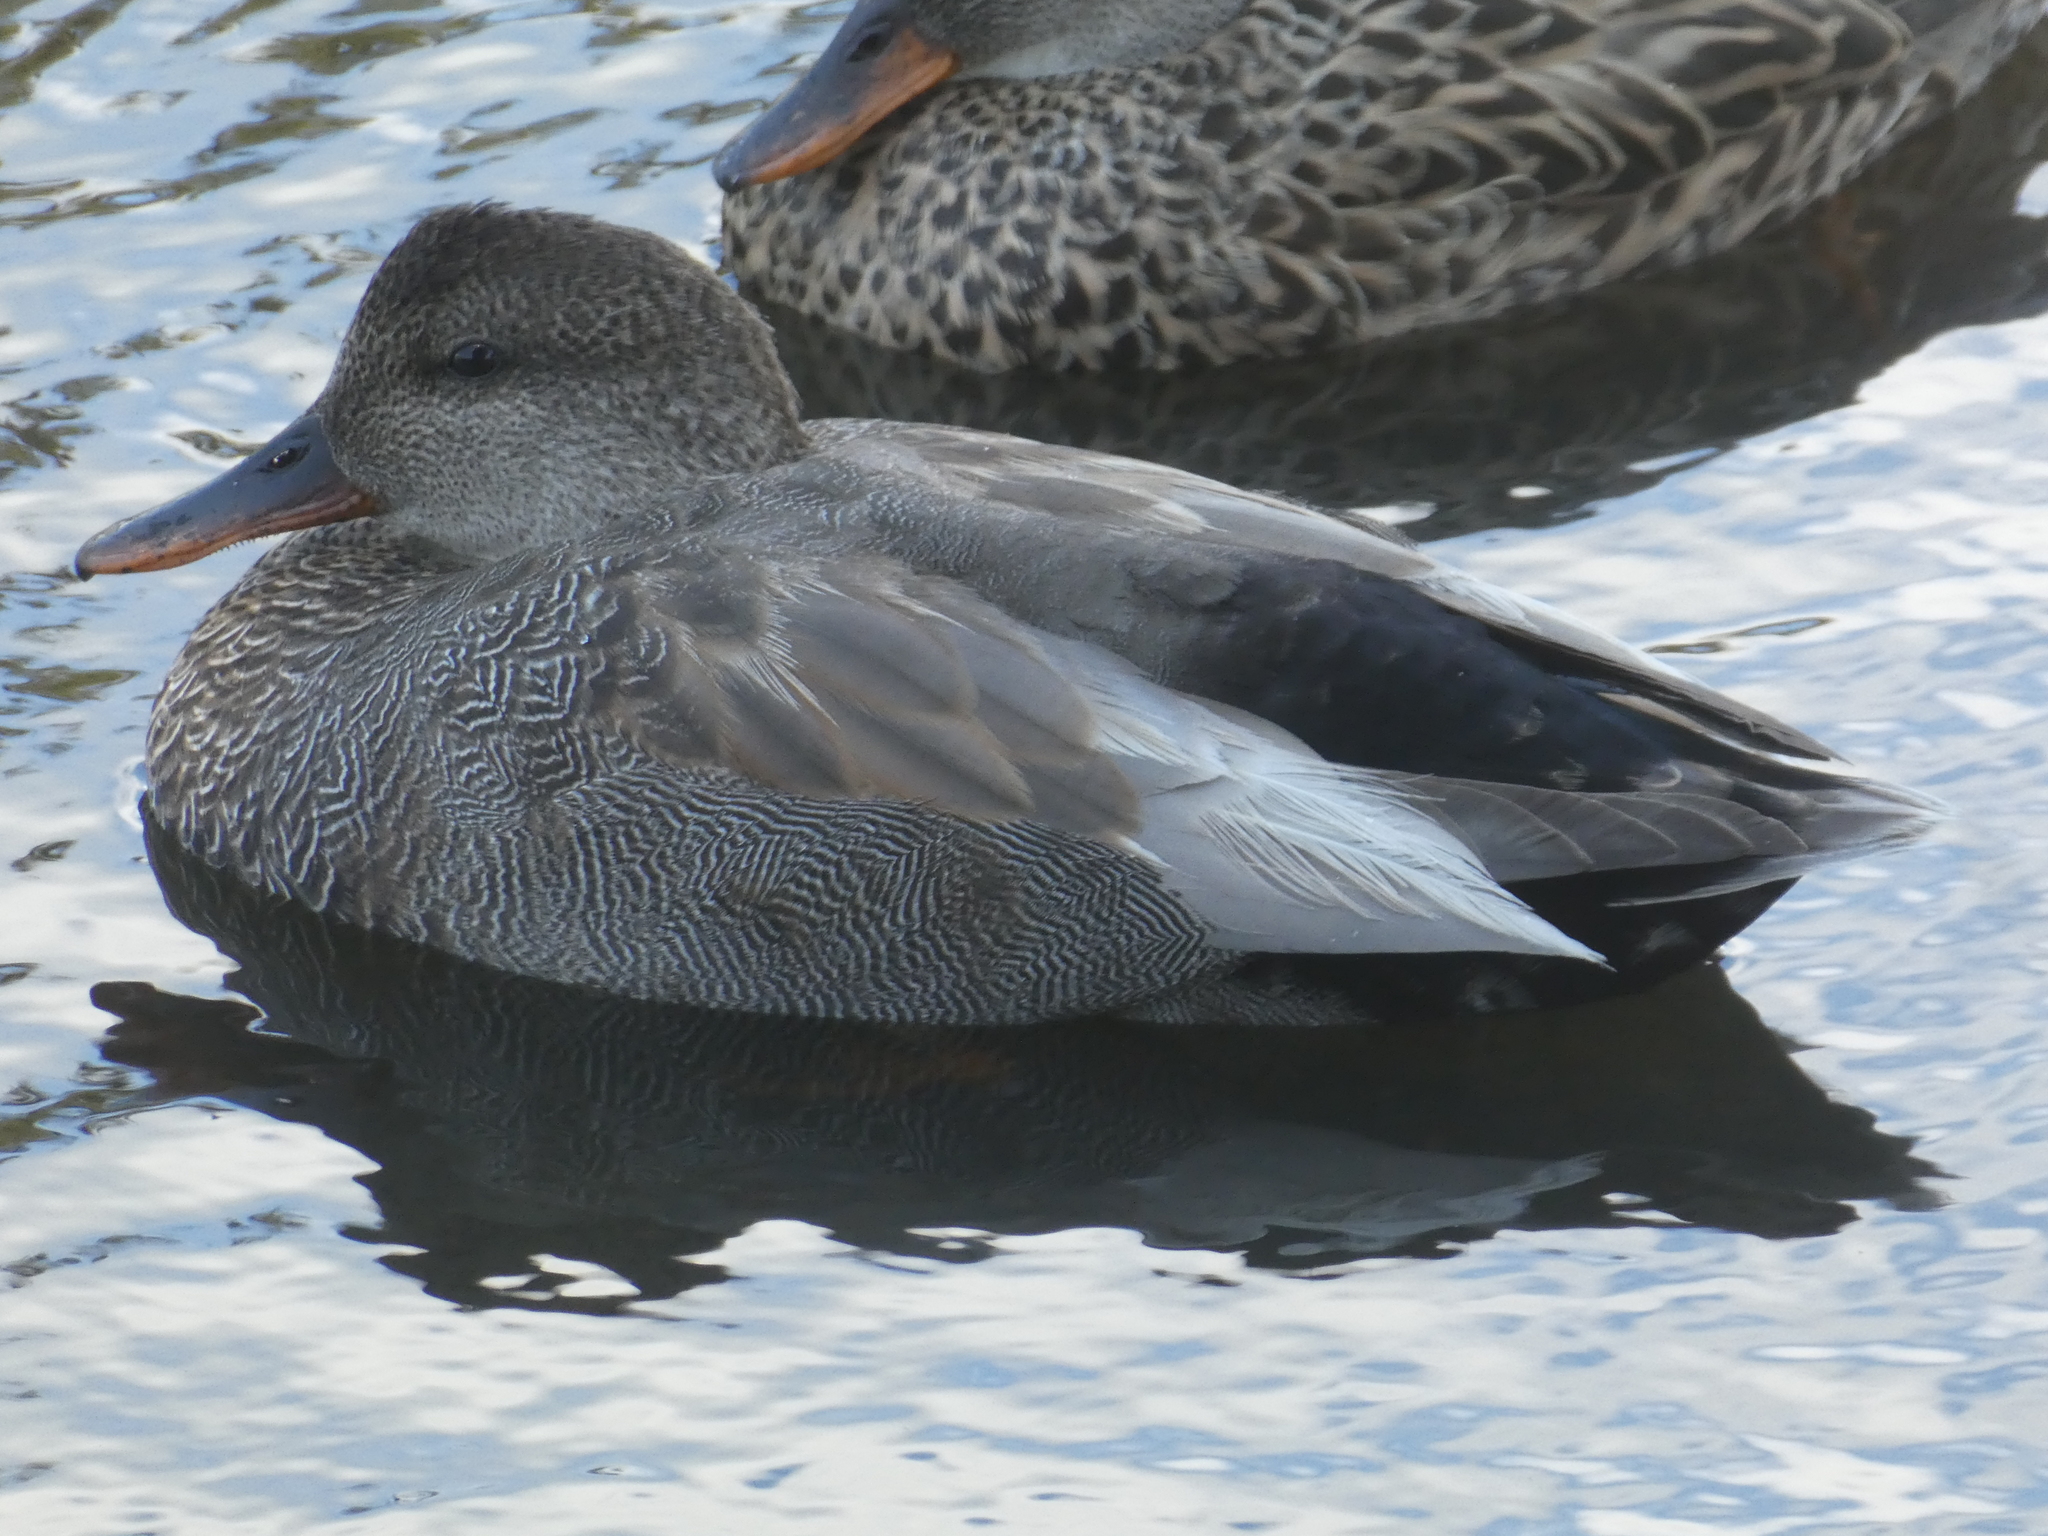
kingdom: Animalia
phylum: Chordata
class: Aves
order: Anseriformes
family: Anatidae
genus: Mareca
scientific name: Mareca strepera
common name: Gadwall
